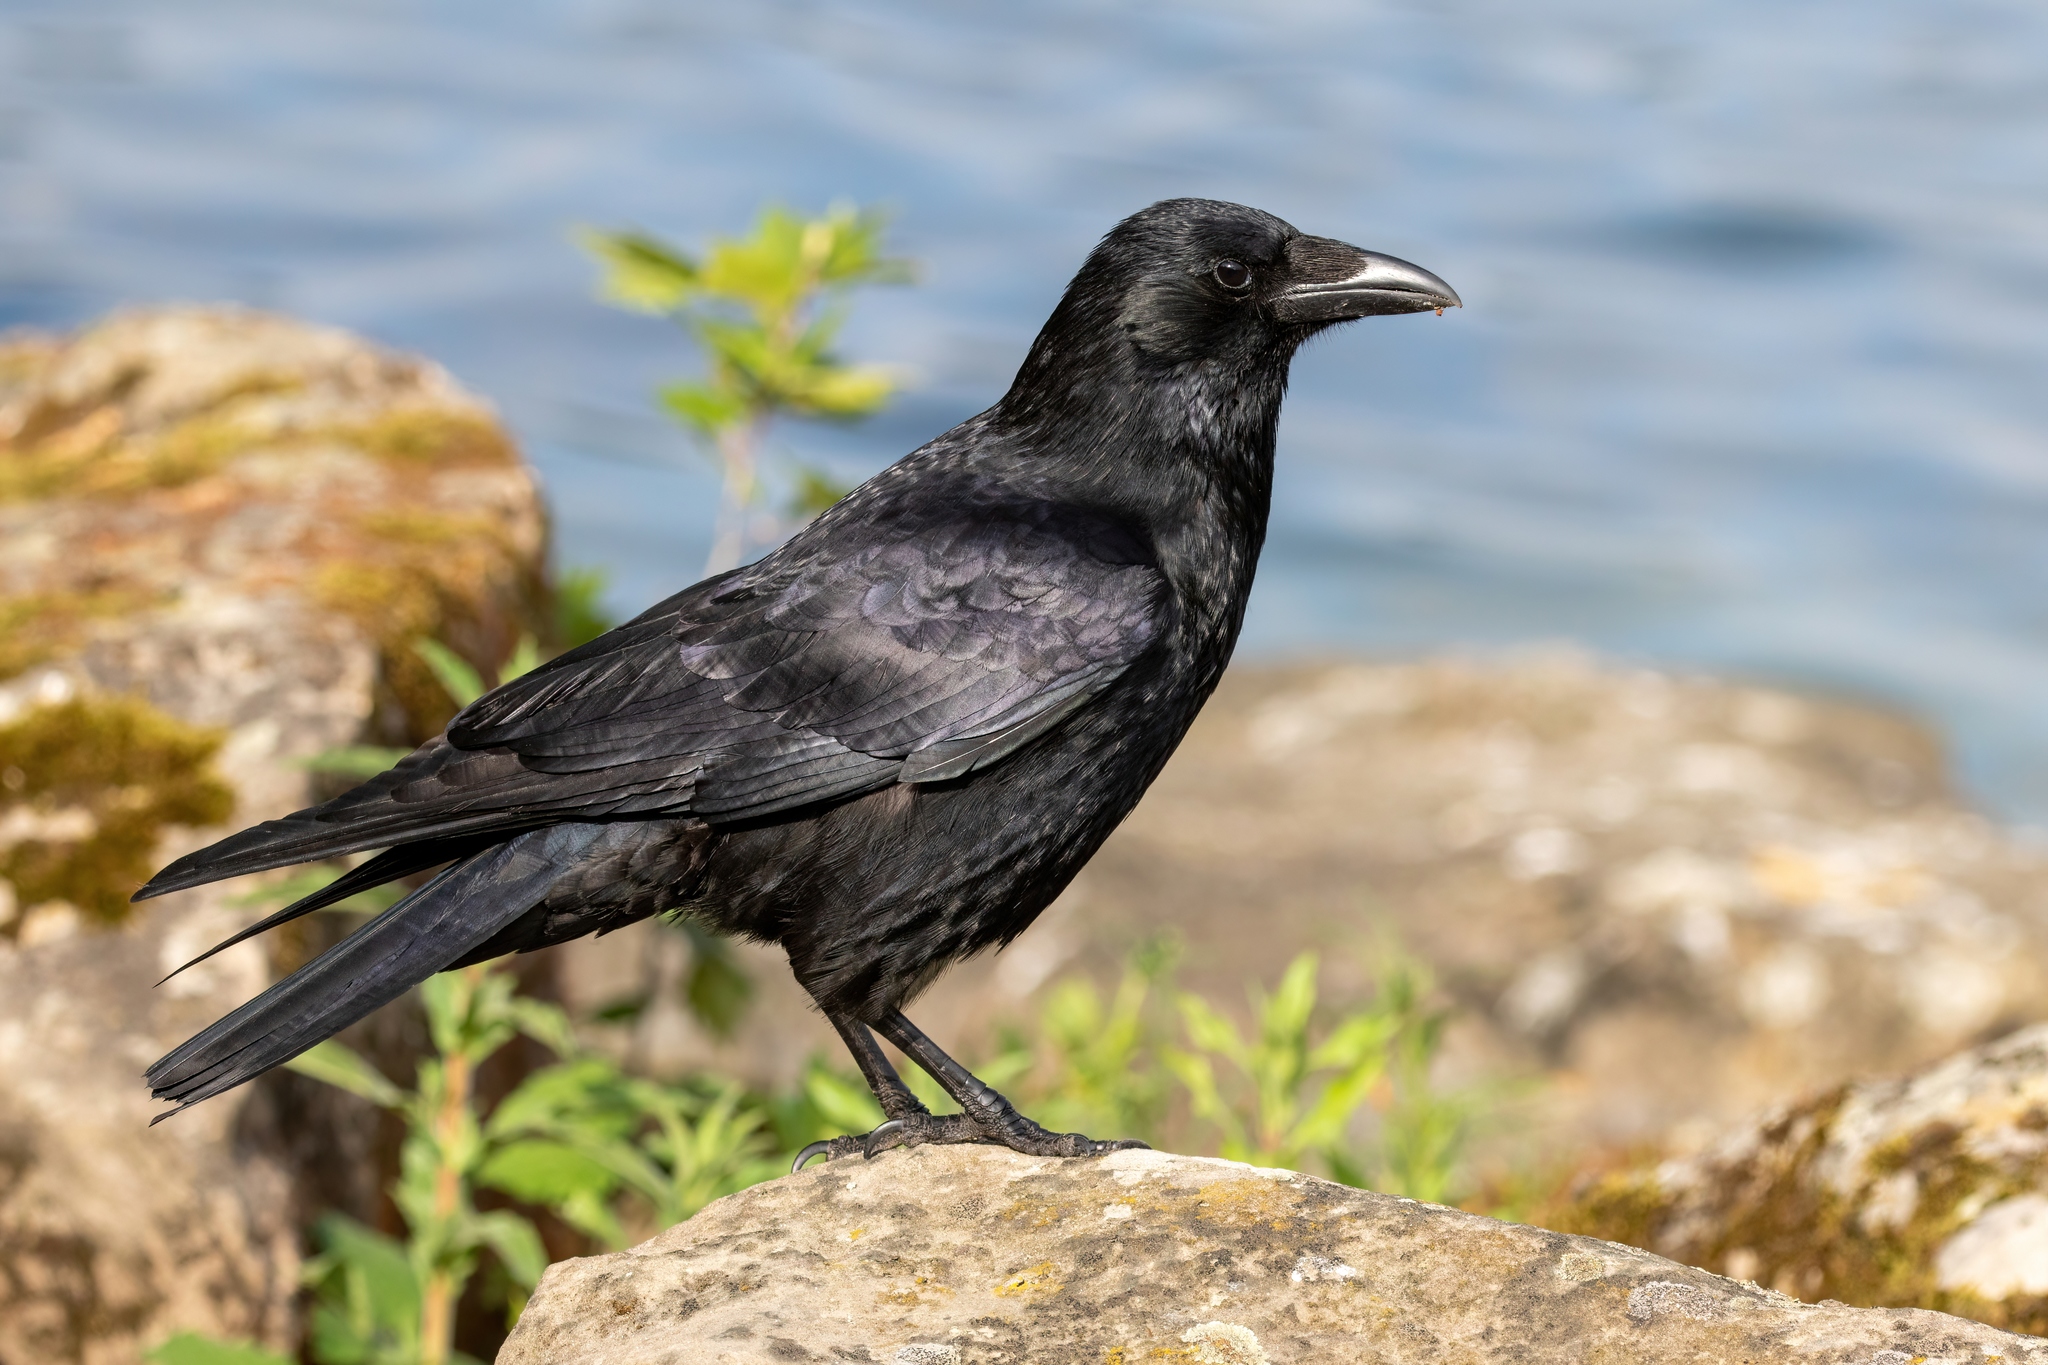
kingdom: Animalia
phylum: Chordata
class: Aves
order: Passeriformes
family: Corvidae
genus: Corvus
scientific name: Corvus corone
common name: Carrion crow
